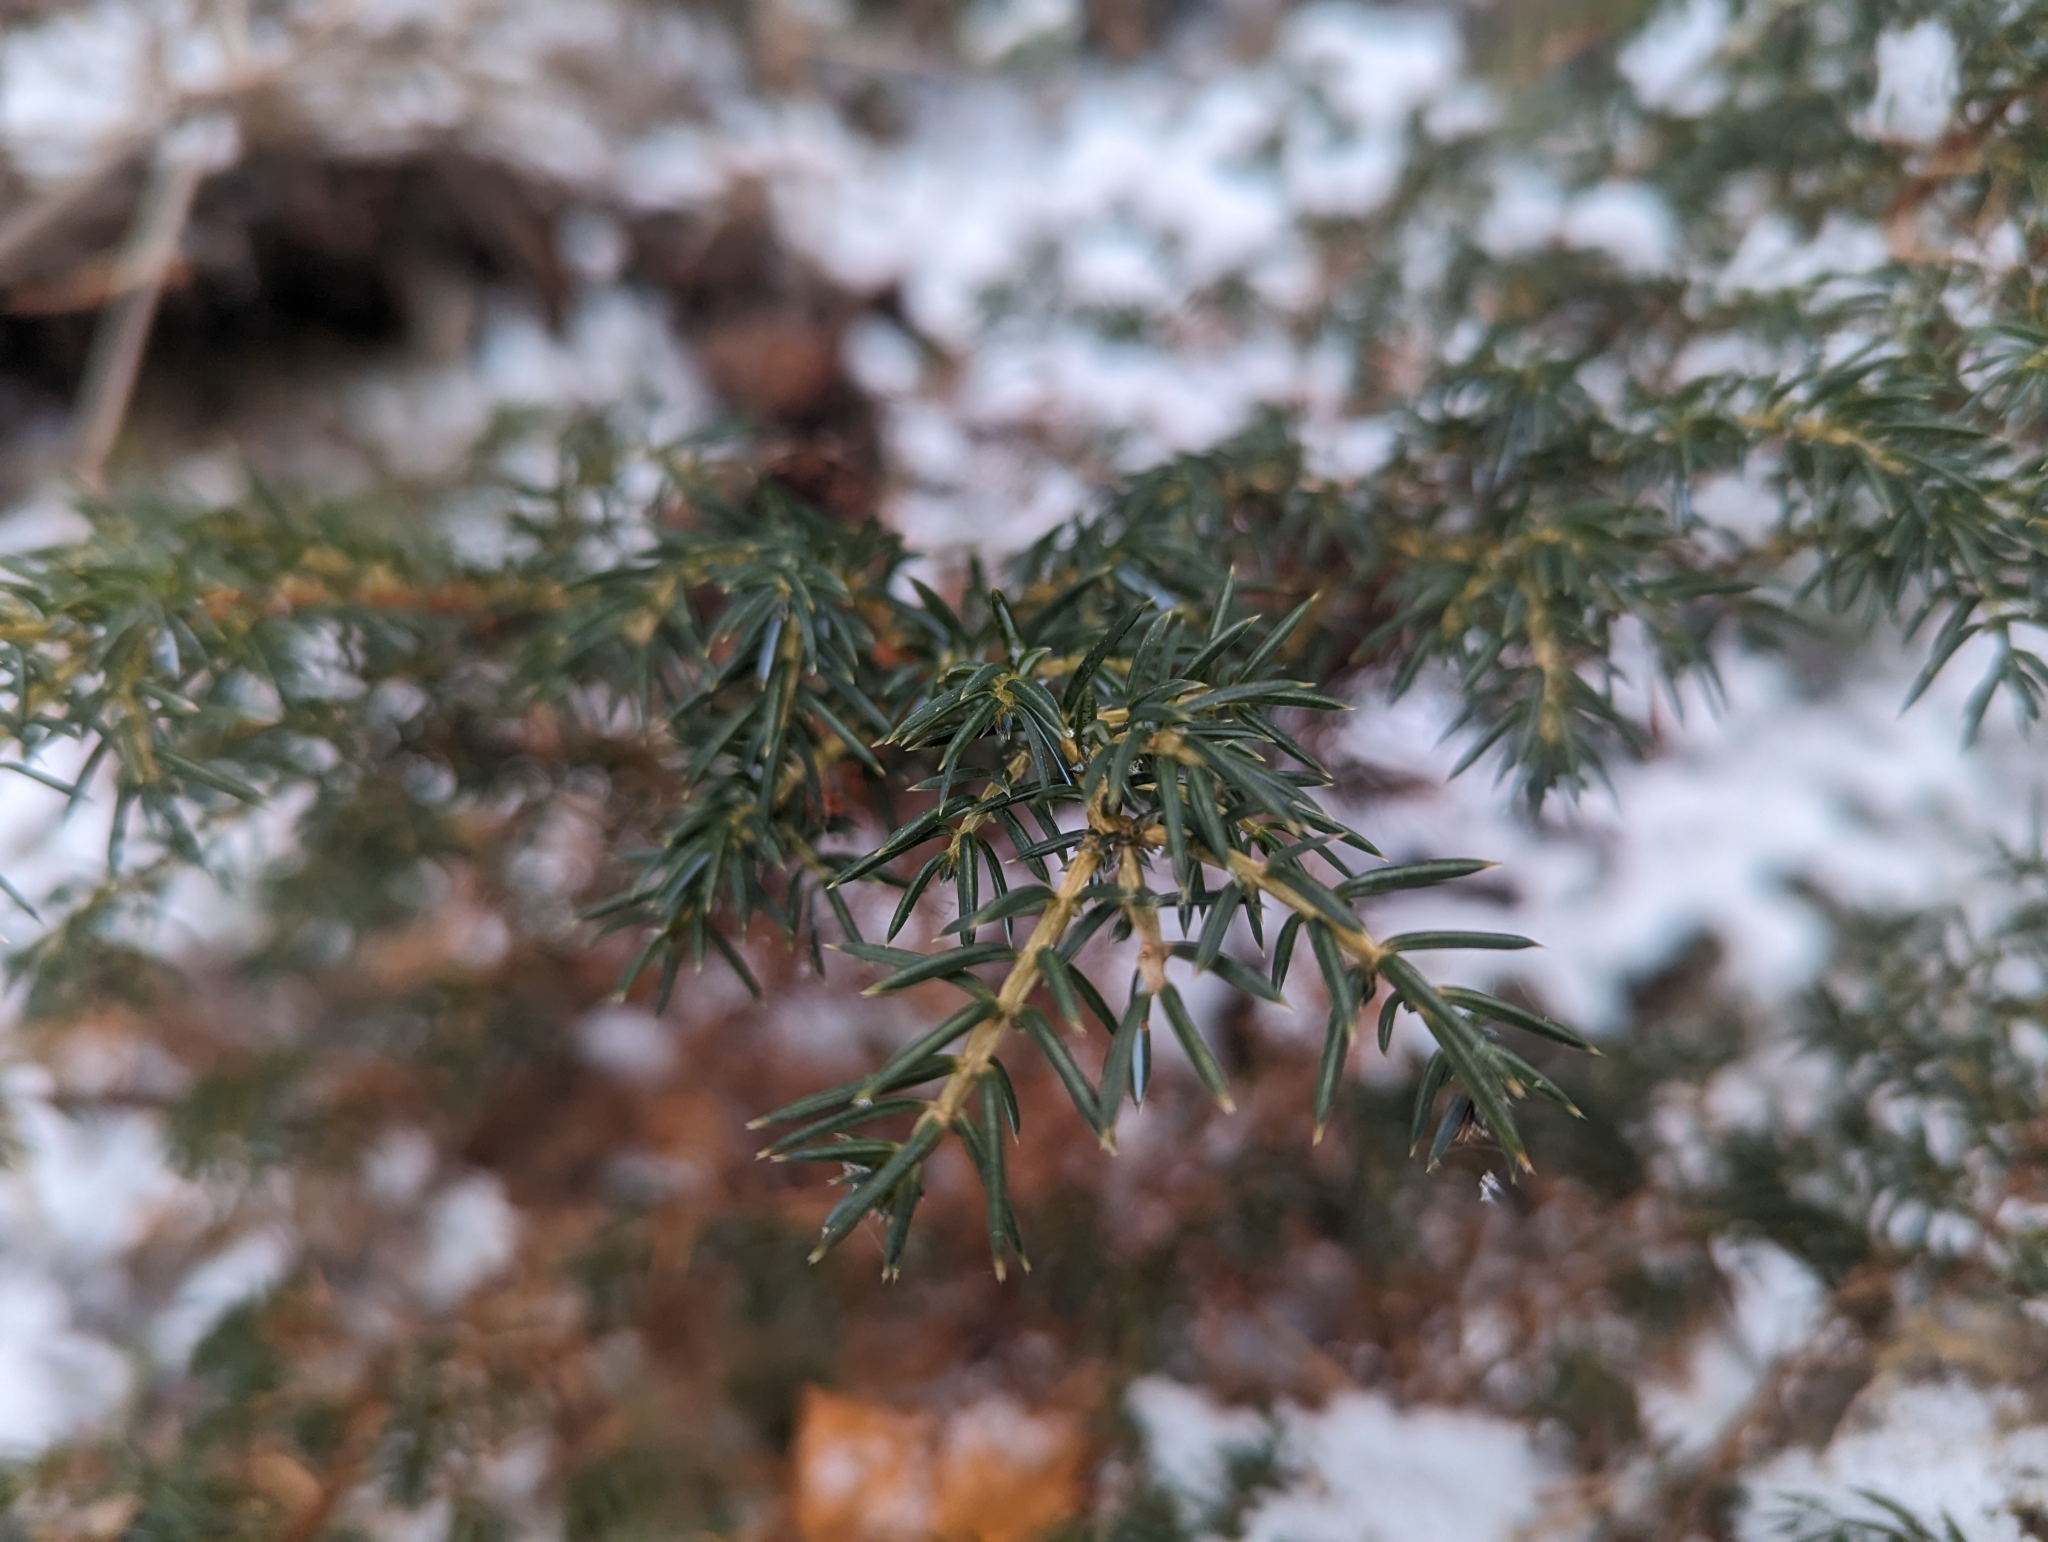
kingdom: Plantae
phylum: Tracheophyta
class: Pinopsida
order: Pinales
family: Cupressaceae
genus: Juniperus
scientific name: Juniperus communis
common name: Common juniper
